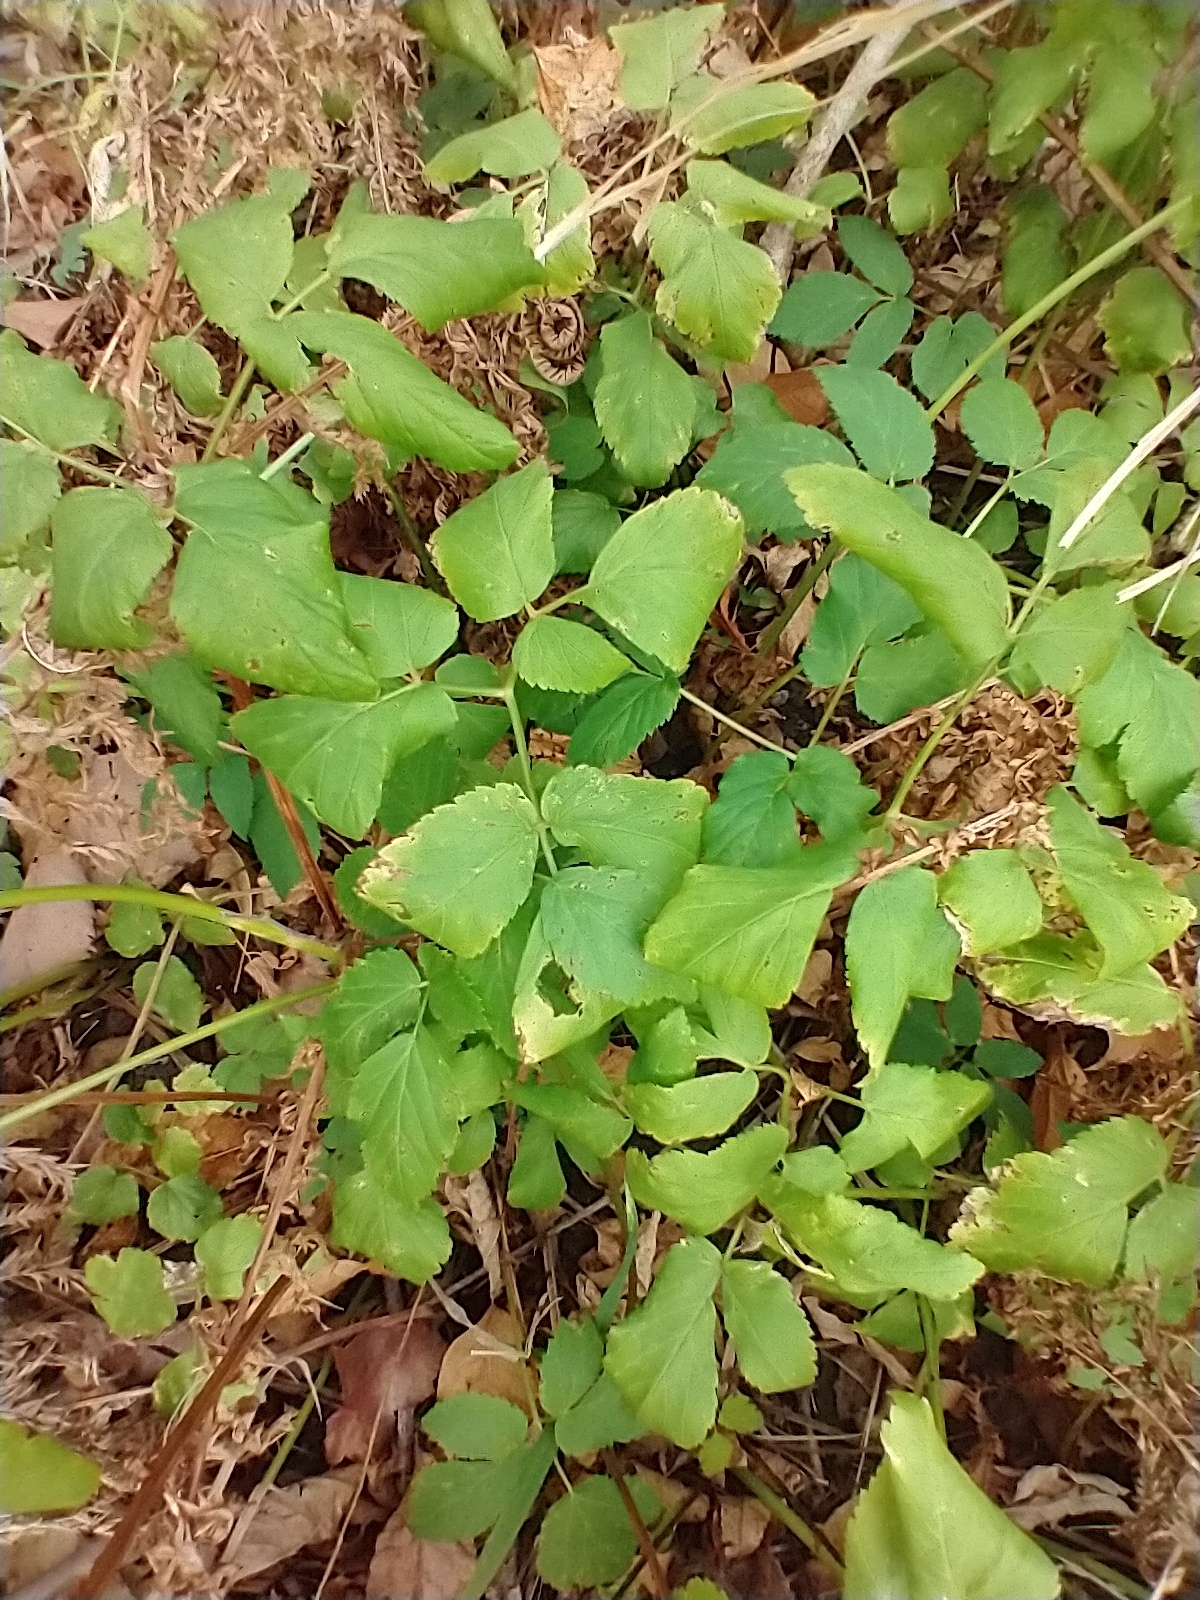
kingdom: Plantae
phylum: Tracheophyta
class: Magnoliopsida
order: Apiales
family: Apiaceae
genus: Aegopodium
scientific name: Aegopodium podagraria
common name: Ground-elder
